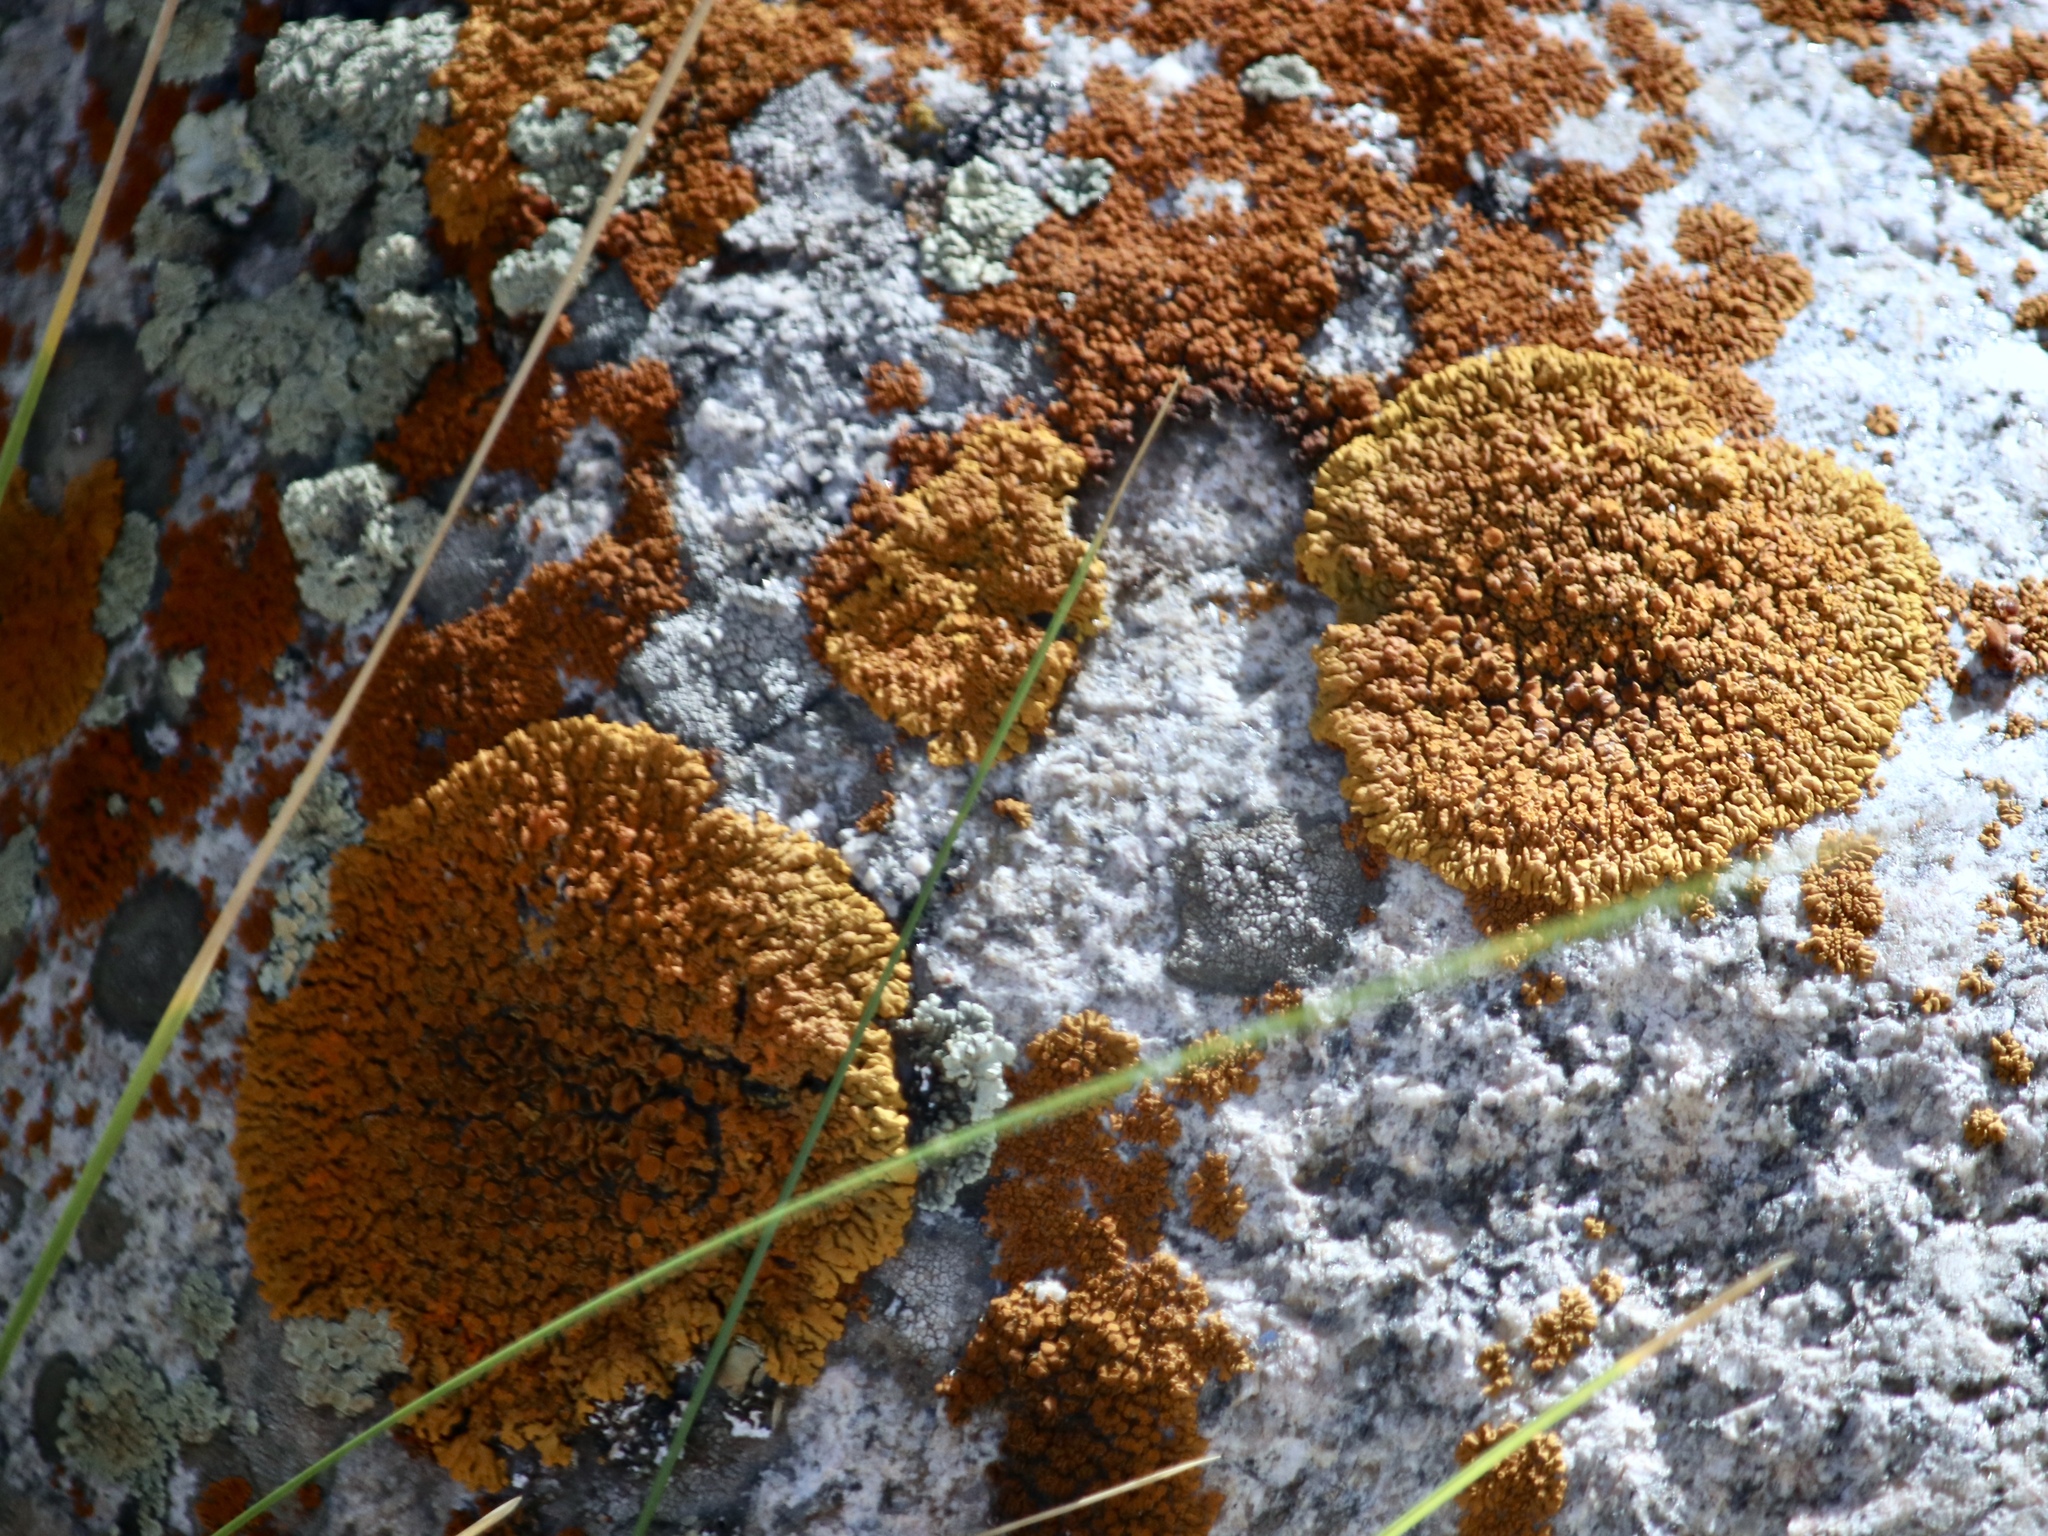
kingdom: Fungi
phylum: Ascomycota
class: Lecanoromycetes
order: Teloschistales
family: Teloschistaceae
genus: Xanthoria
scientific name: Xanthoria elegans
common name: Elegant sunburst lichen
